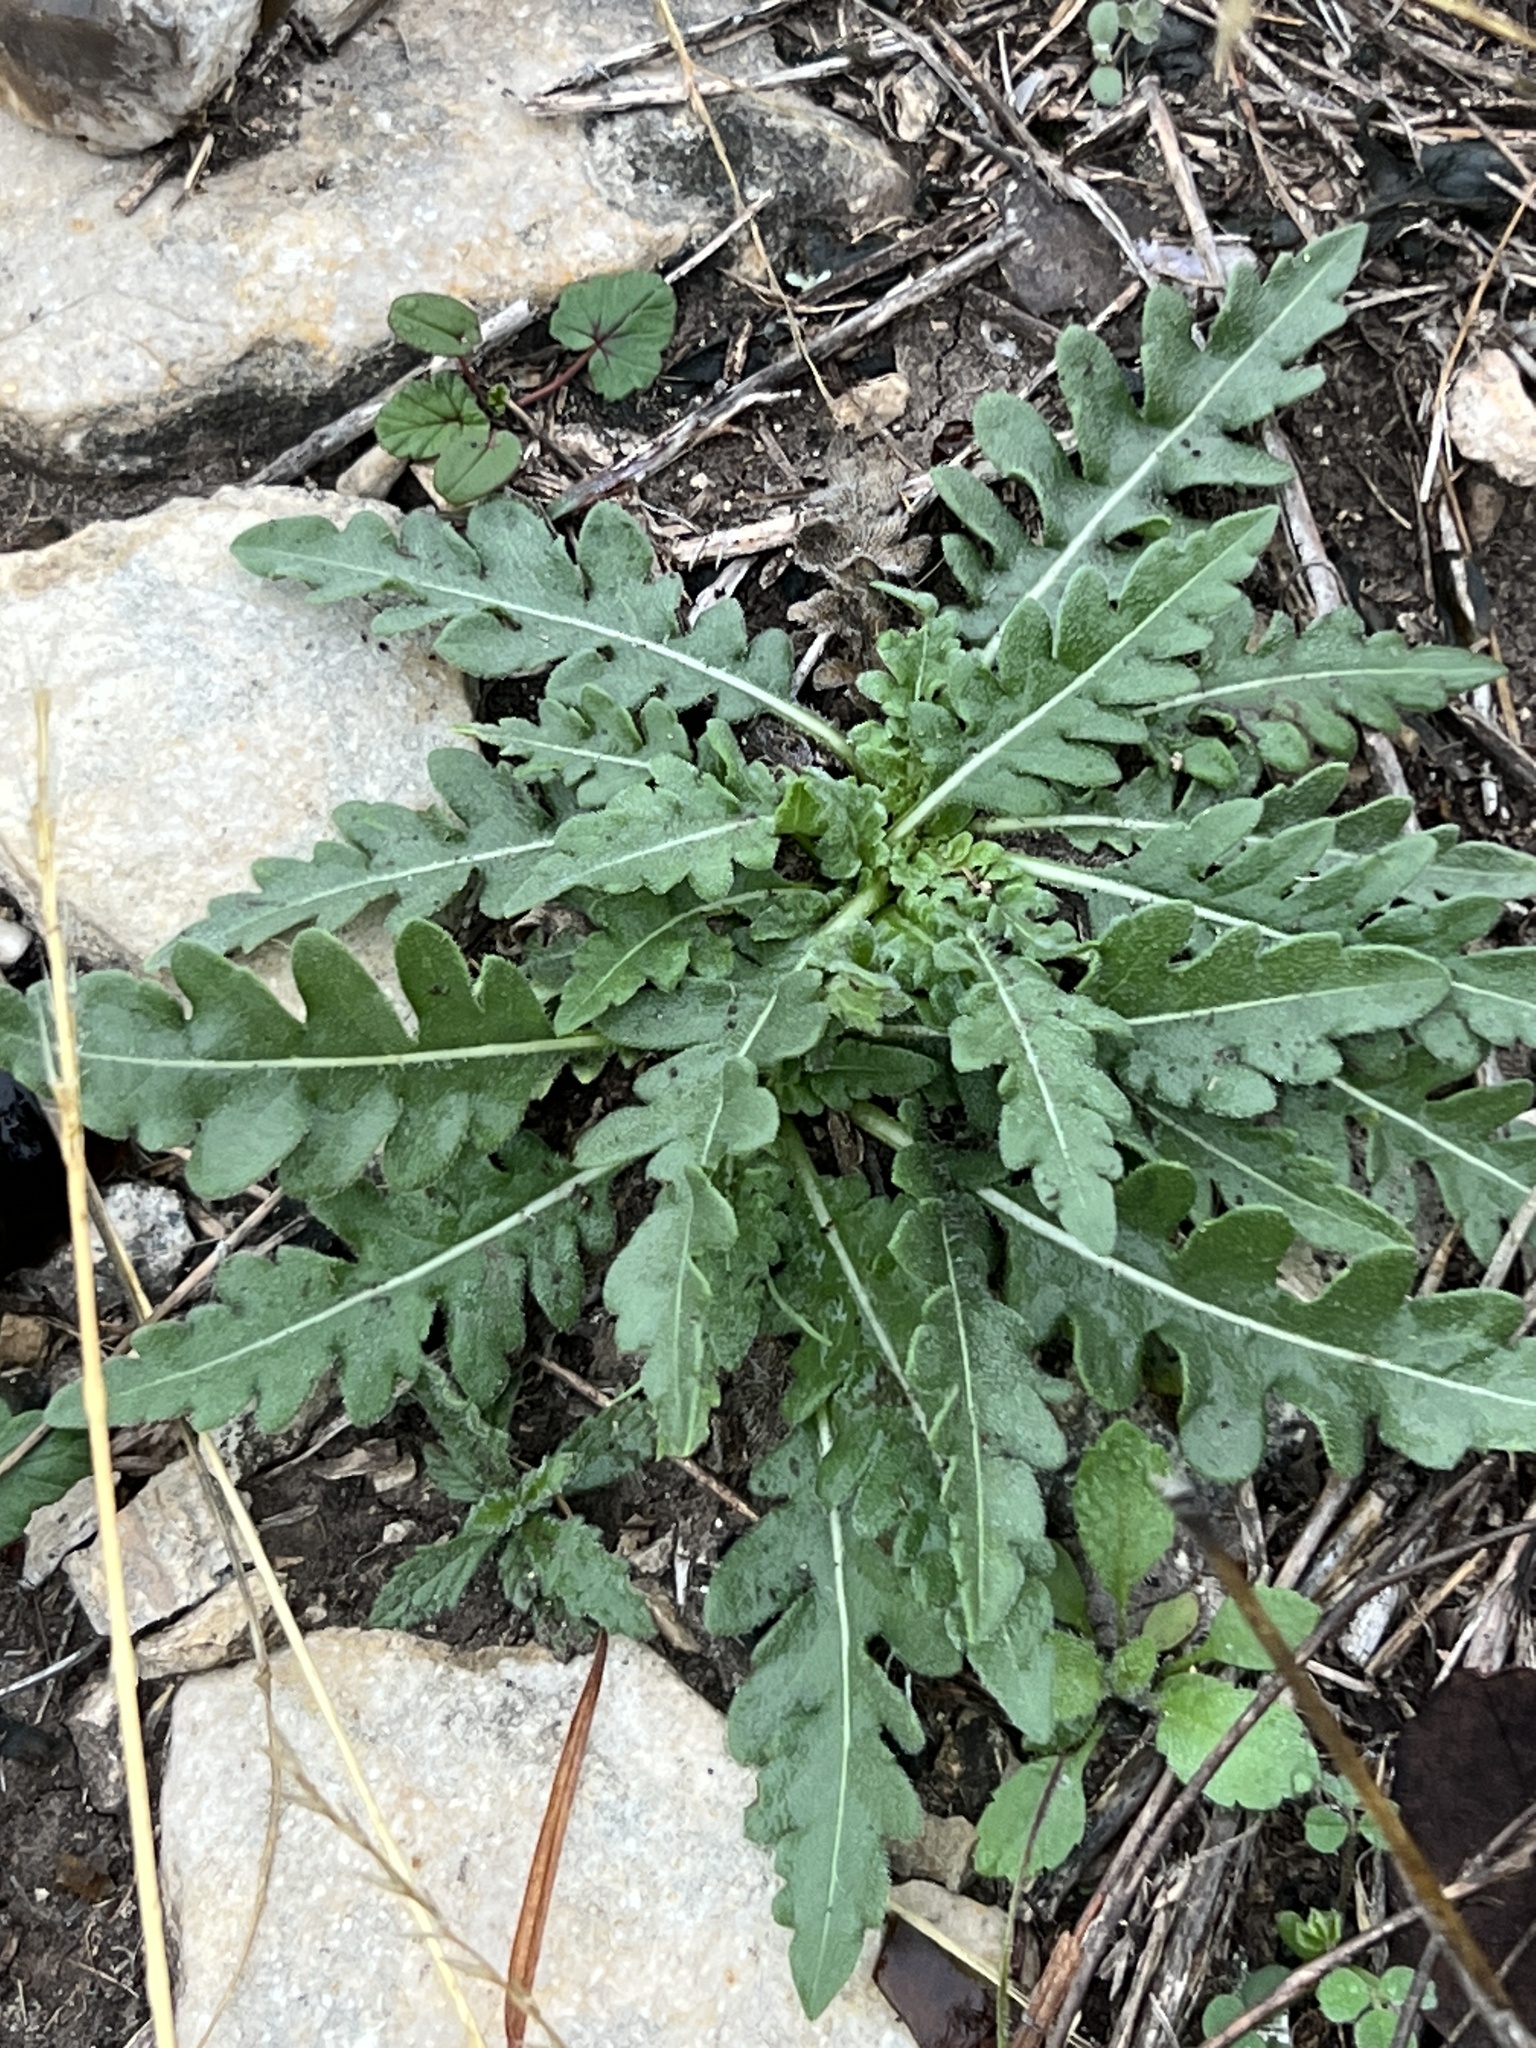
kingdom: Plantae
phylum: Tracheophyta
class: Magnoliopsida
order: Asterales
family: Asteraceae
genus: Engelmannia
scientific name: Engelmannia peristenia
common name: Engelmann's daisy
